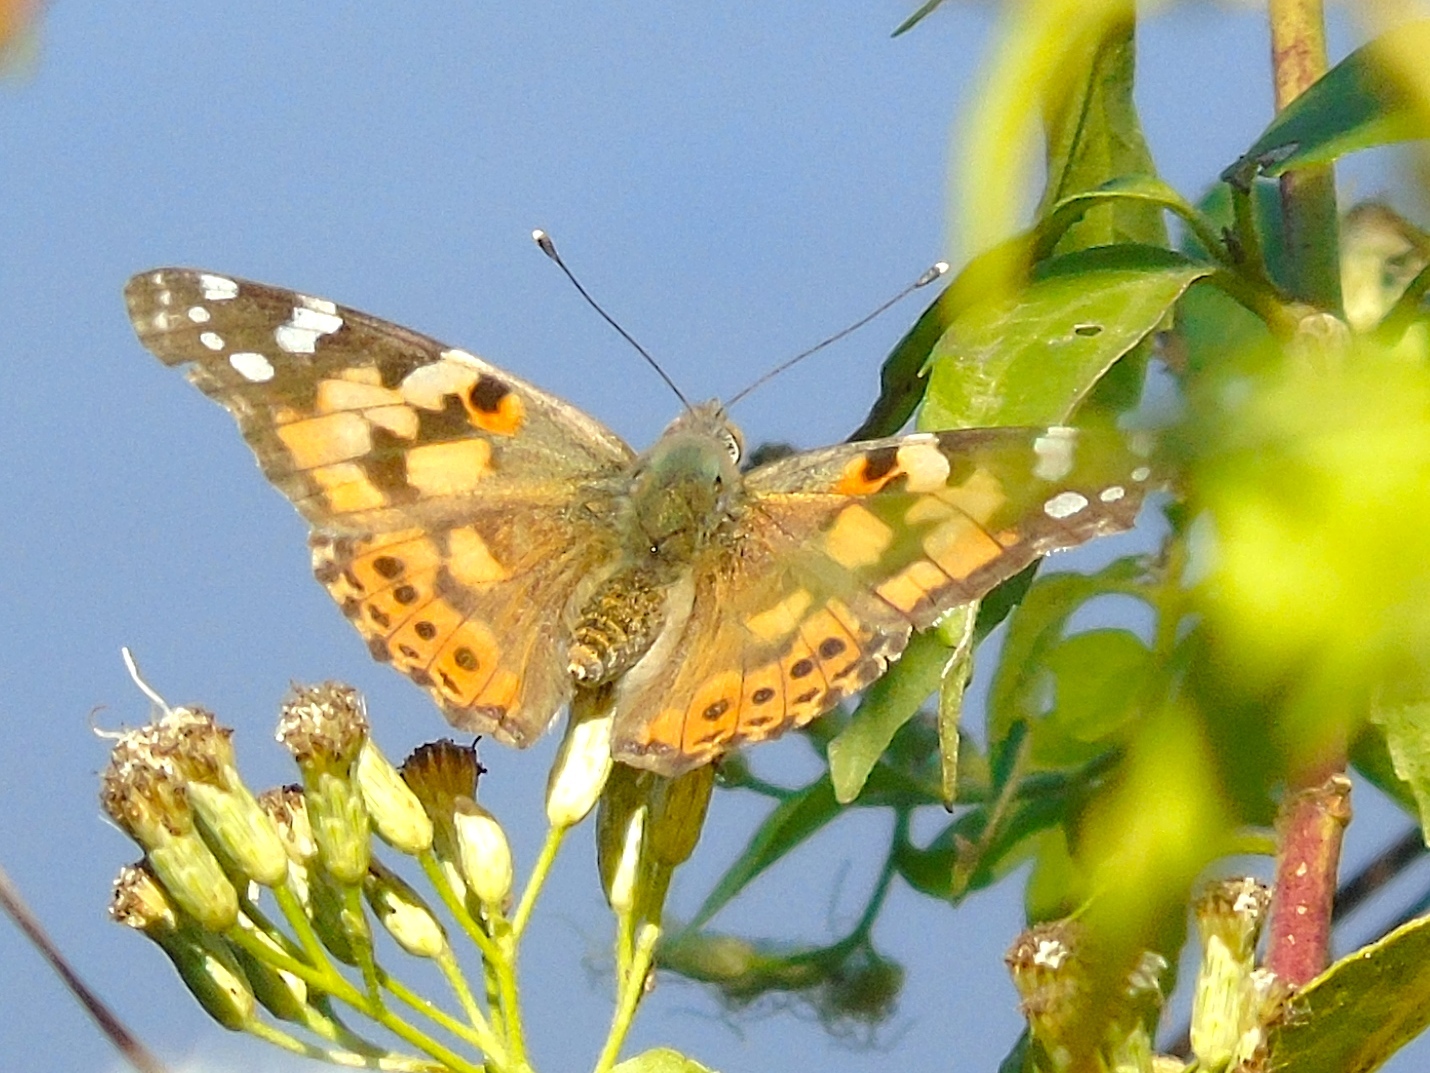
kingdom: Animalia
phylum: Arthropoda
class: Insecta
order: Lepidoptera
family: Nymphalidae
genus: Vanessa
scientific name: Vanessa cardui
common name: Painted lady
